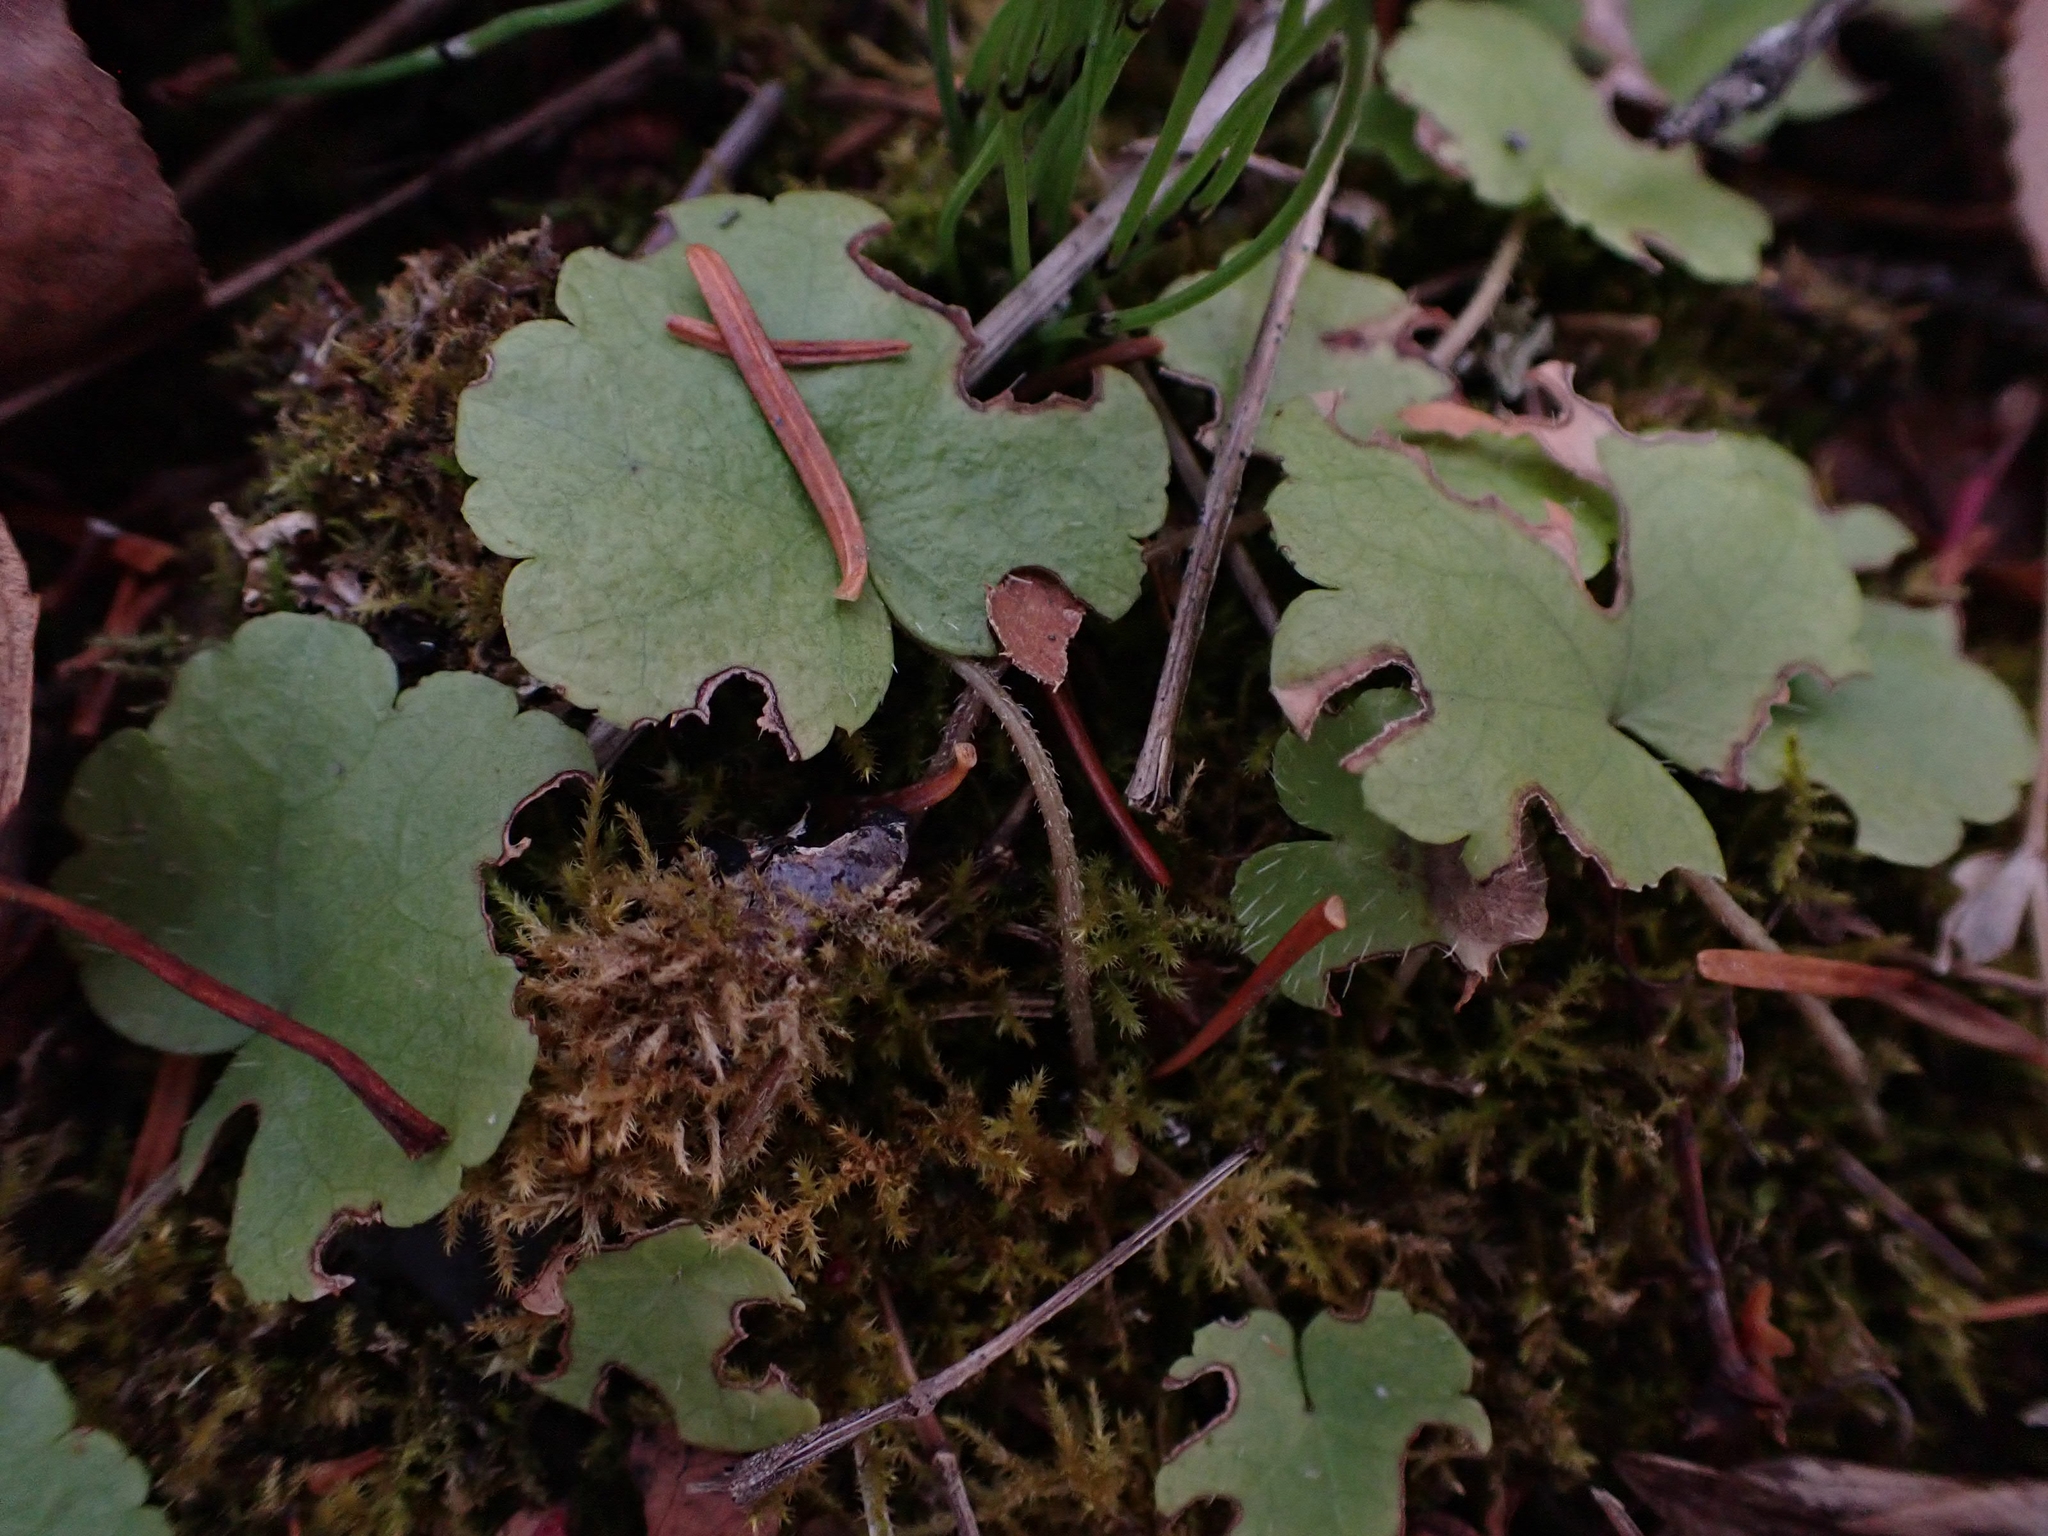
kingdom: Plantae
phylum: Tracheophyta
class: Magnoliopsida
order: Saxifragales
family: Saxifragaceae
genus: Mitella
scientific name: Mitella nuda
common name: Bare-stemmed bishop's-cap
